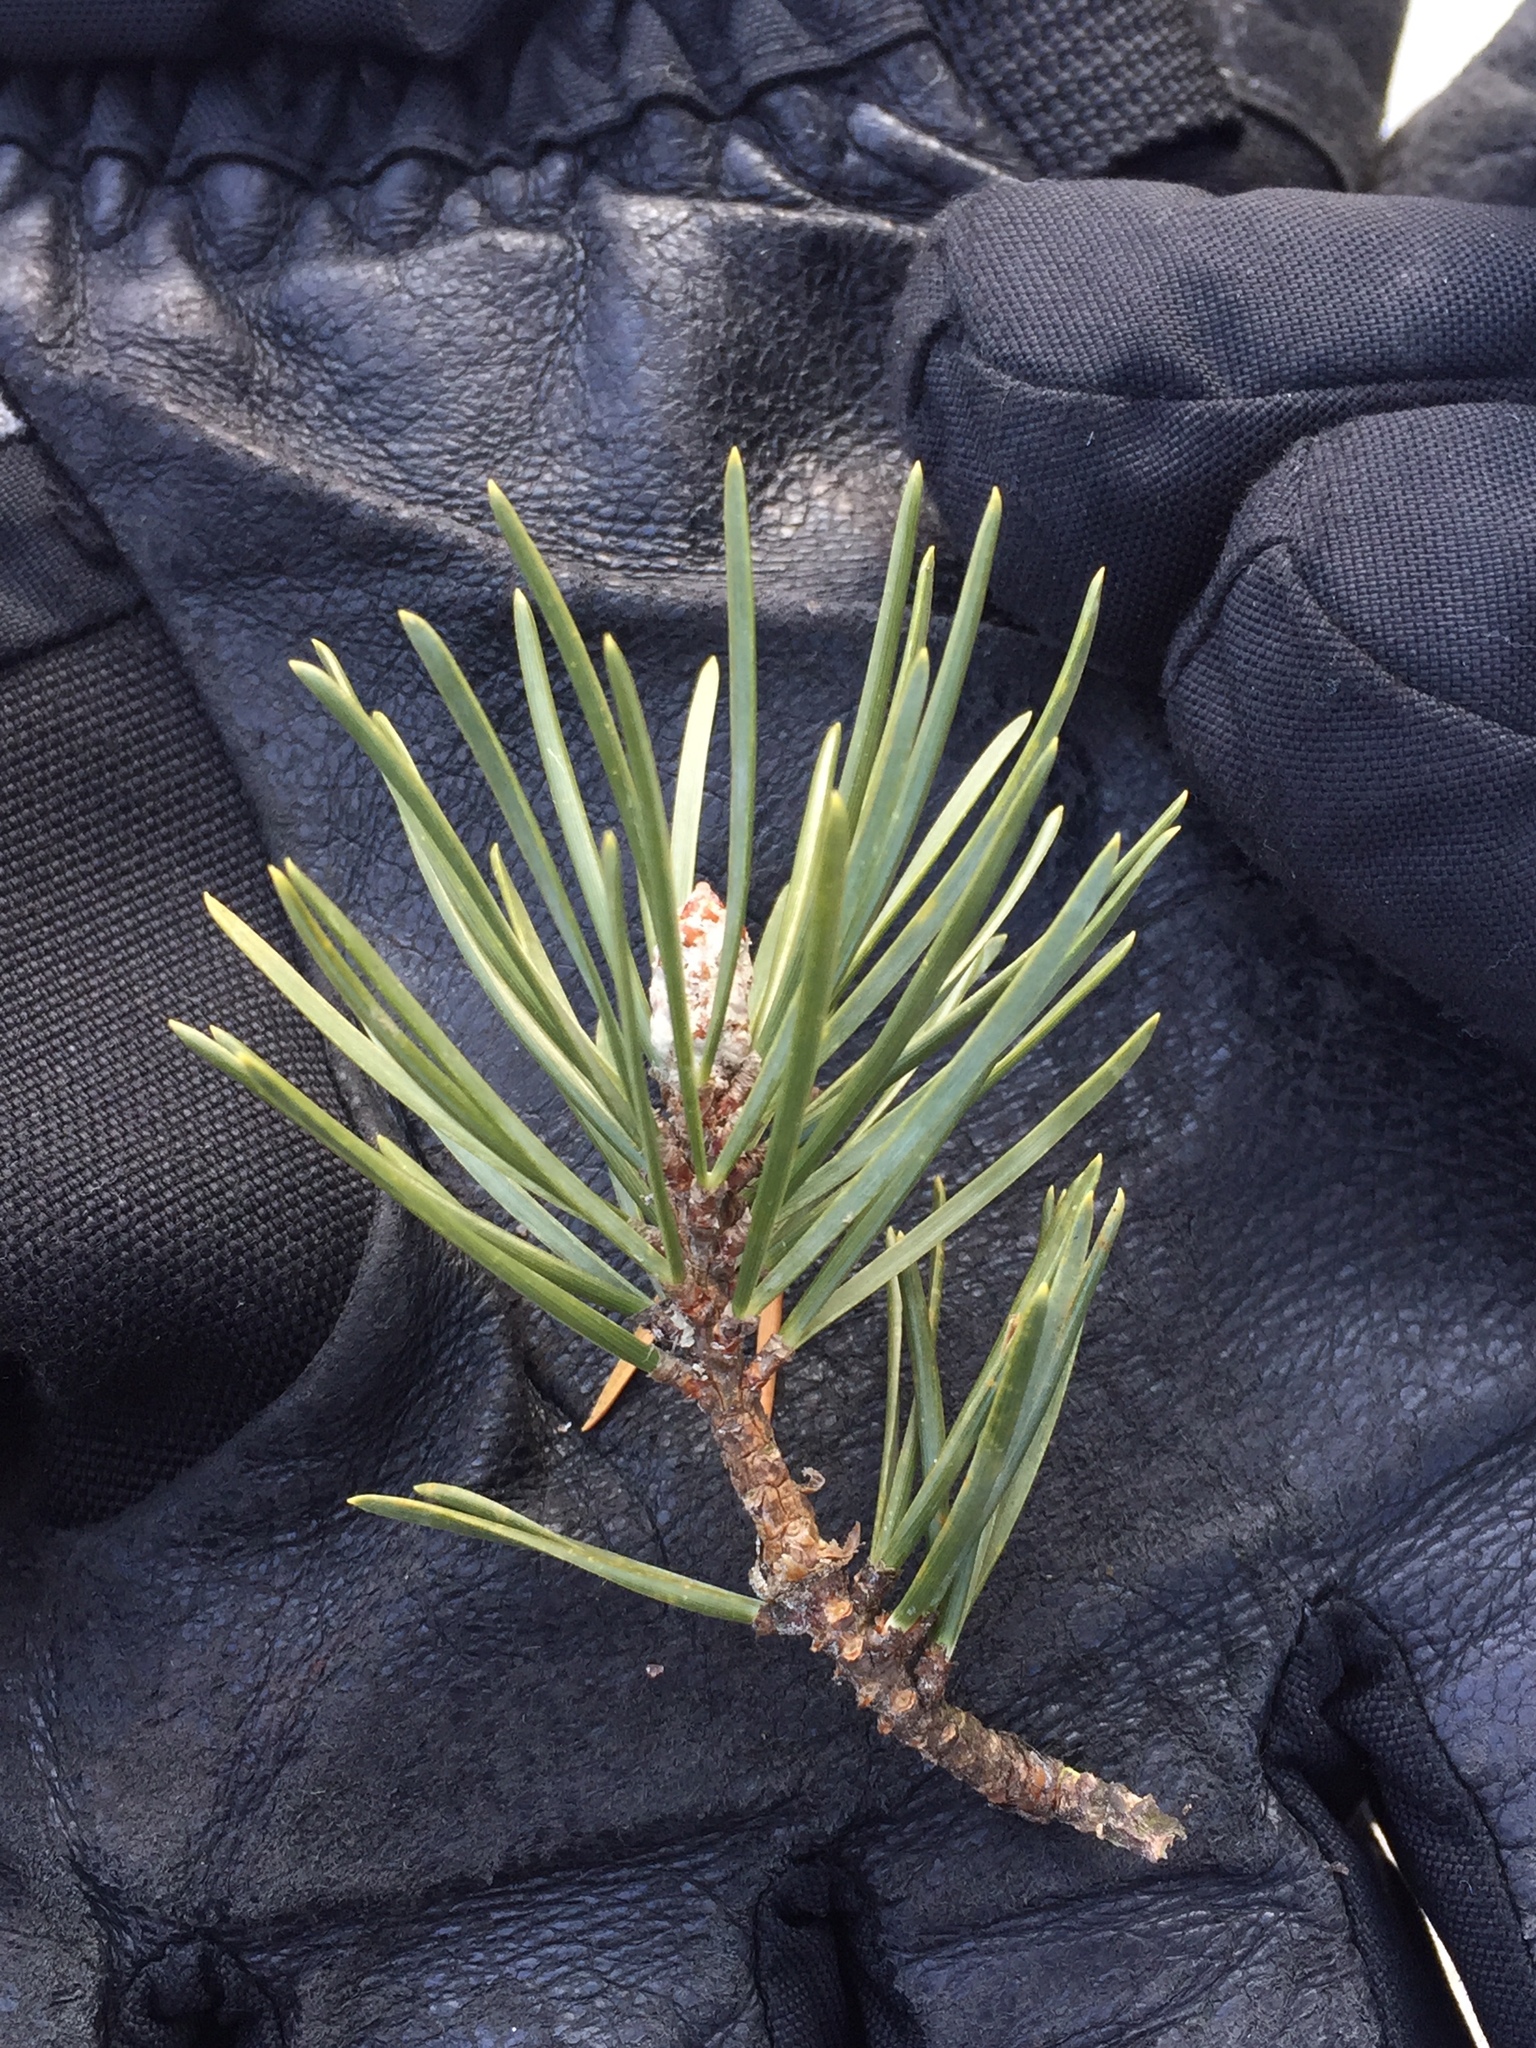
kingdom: Plantae
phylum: Tracheophyta
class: Pinopsida
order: Pinales
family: Pinaceae
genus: Pinus
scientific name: Pinus banksiana
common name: Jack pine
